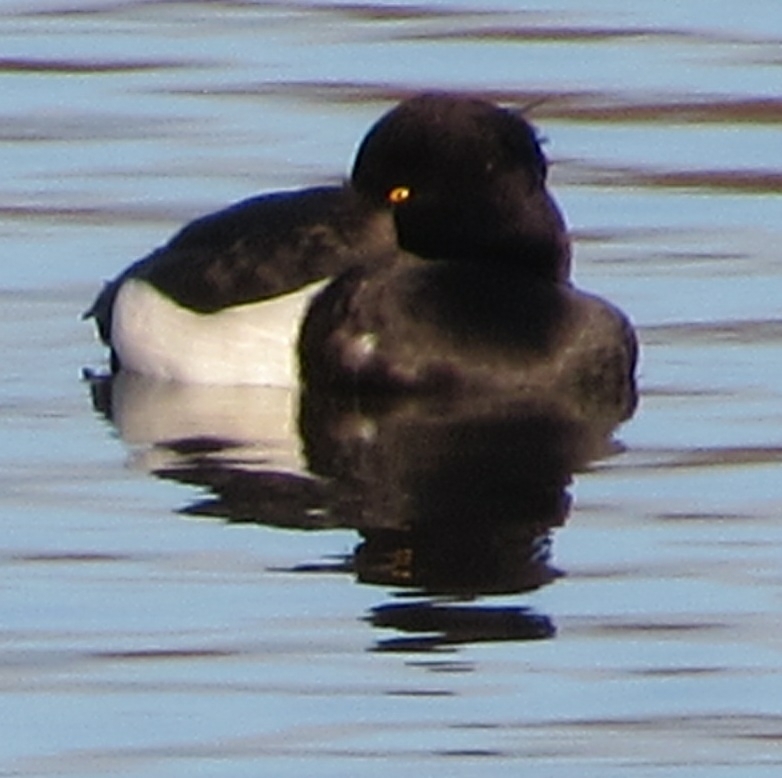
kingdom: Animalia
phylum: Chordata
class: Aves
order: Anseriformes
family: Anatidae
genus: Aythya
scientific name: Aythya fuligula
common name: Tufted duck
